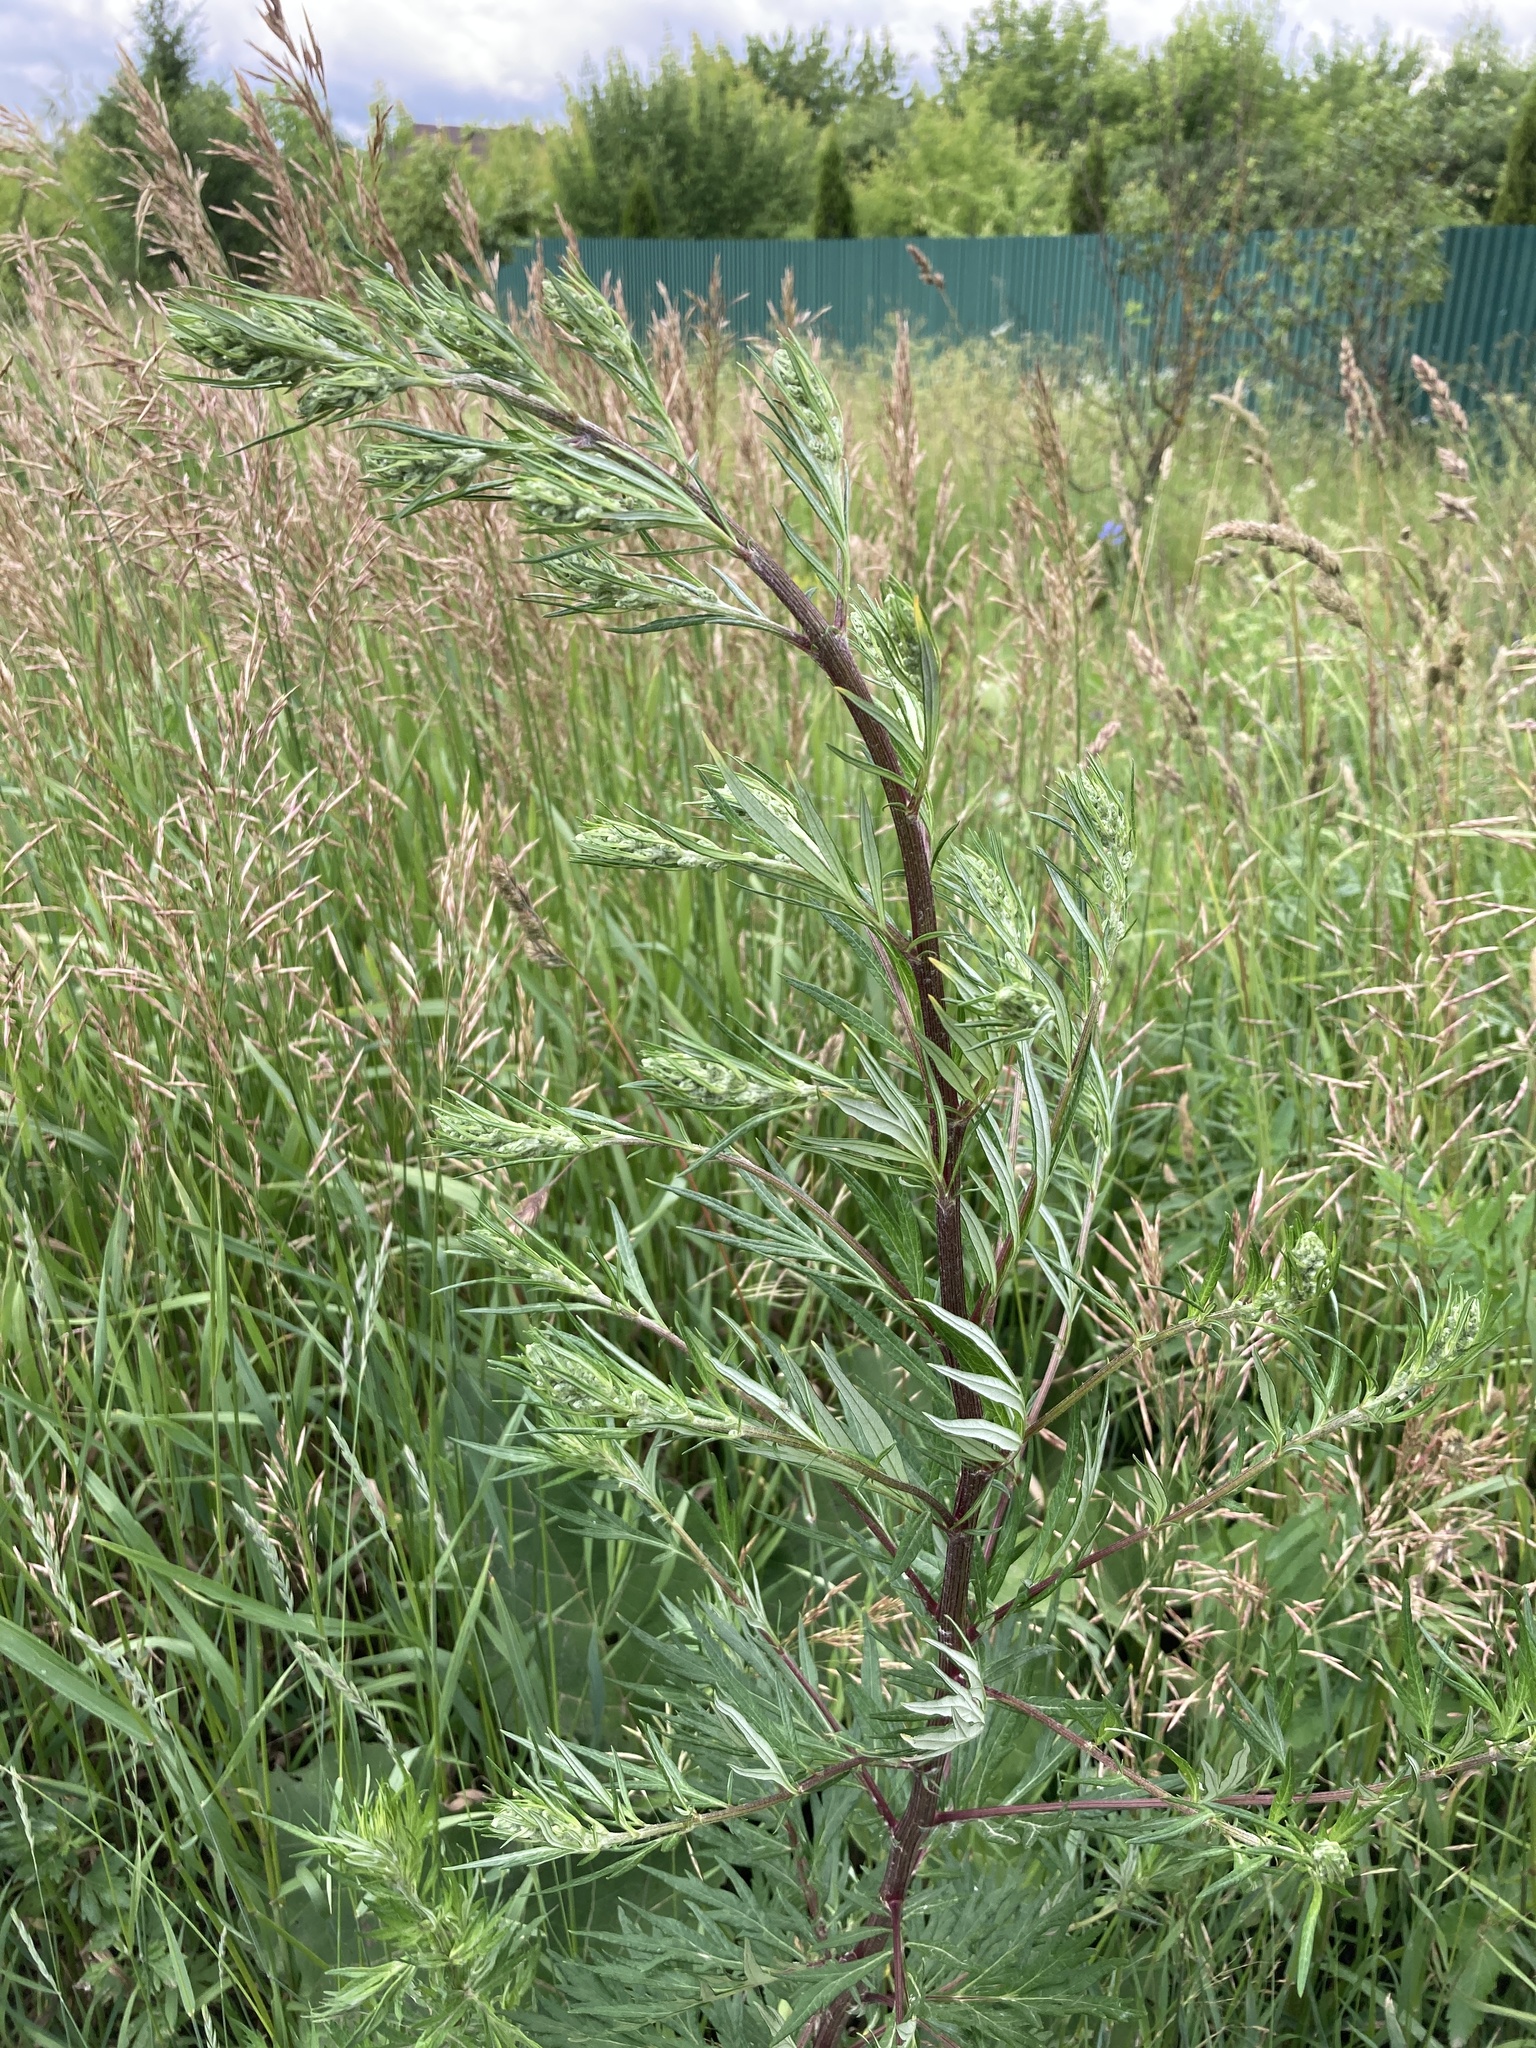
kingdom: Plantae
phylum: Tracheophyta
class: Magnoliopsida
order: Asterales
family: Asteraceae
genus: Artemisia
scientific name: Artemisia vulgaris
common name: Mugwort
